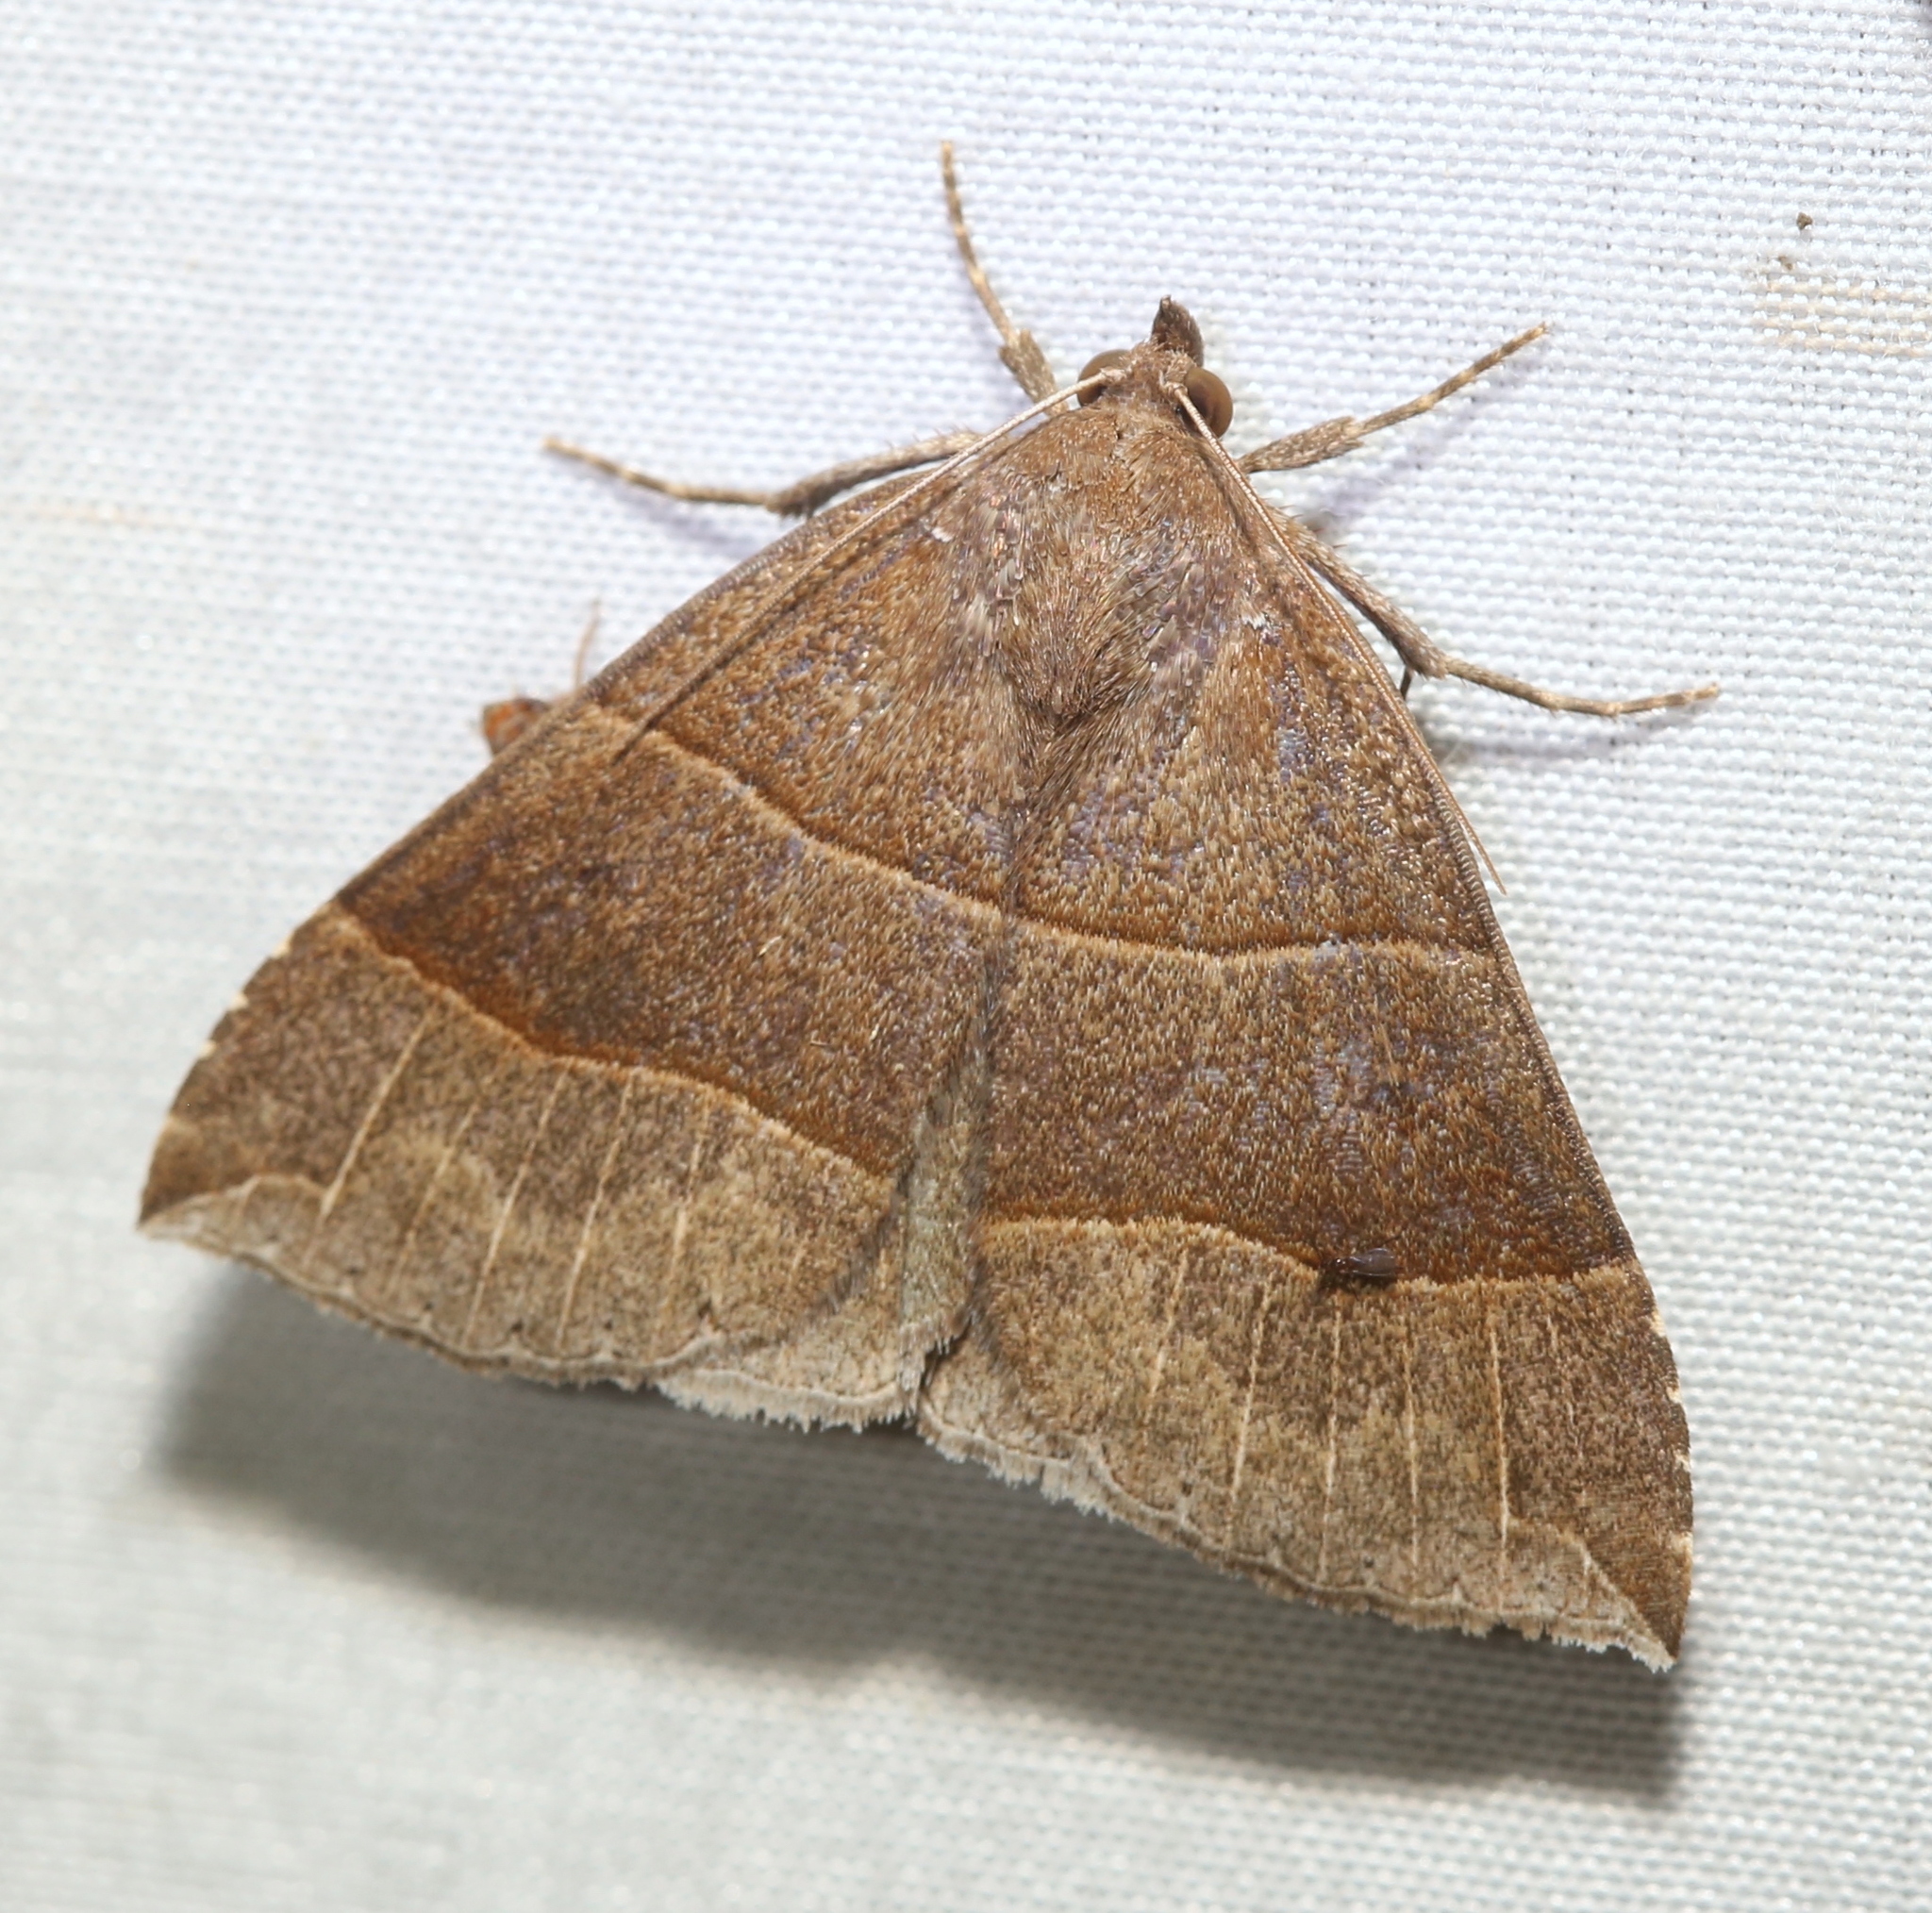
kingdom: Animalia
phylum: Arthropoda
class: Insecta
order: Lepidoptera
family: Erebidae
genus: Parallelia
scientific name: Parallelia bistriaris
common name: Maple looper moth
